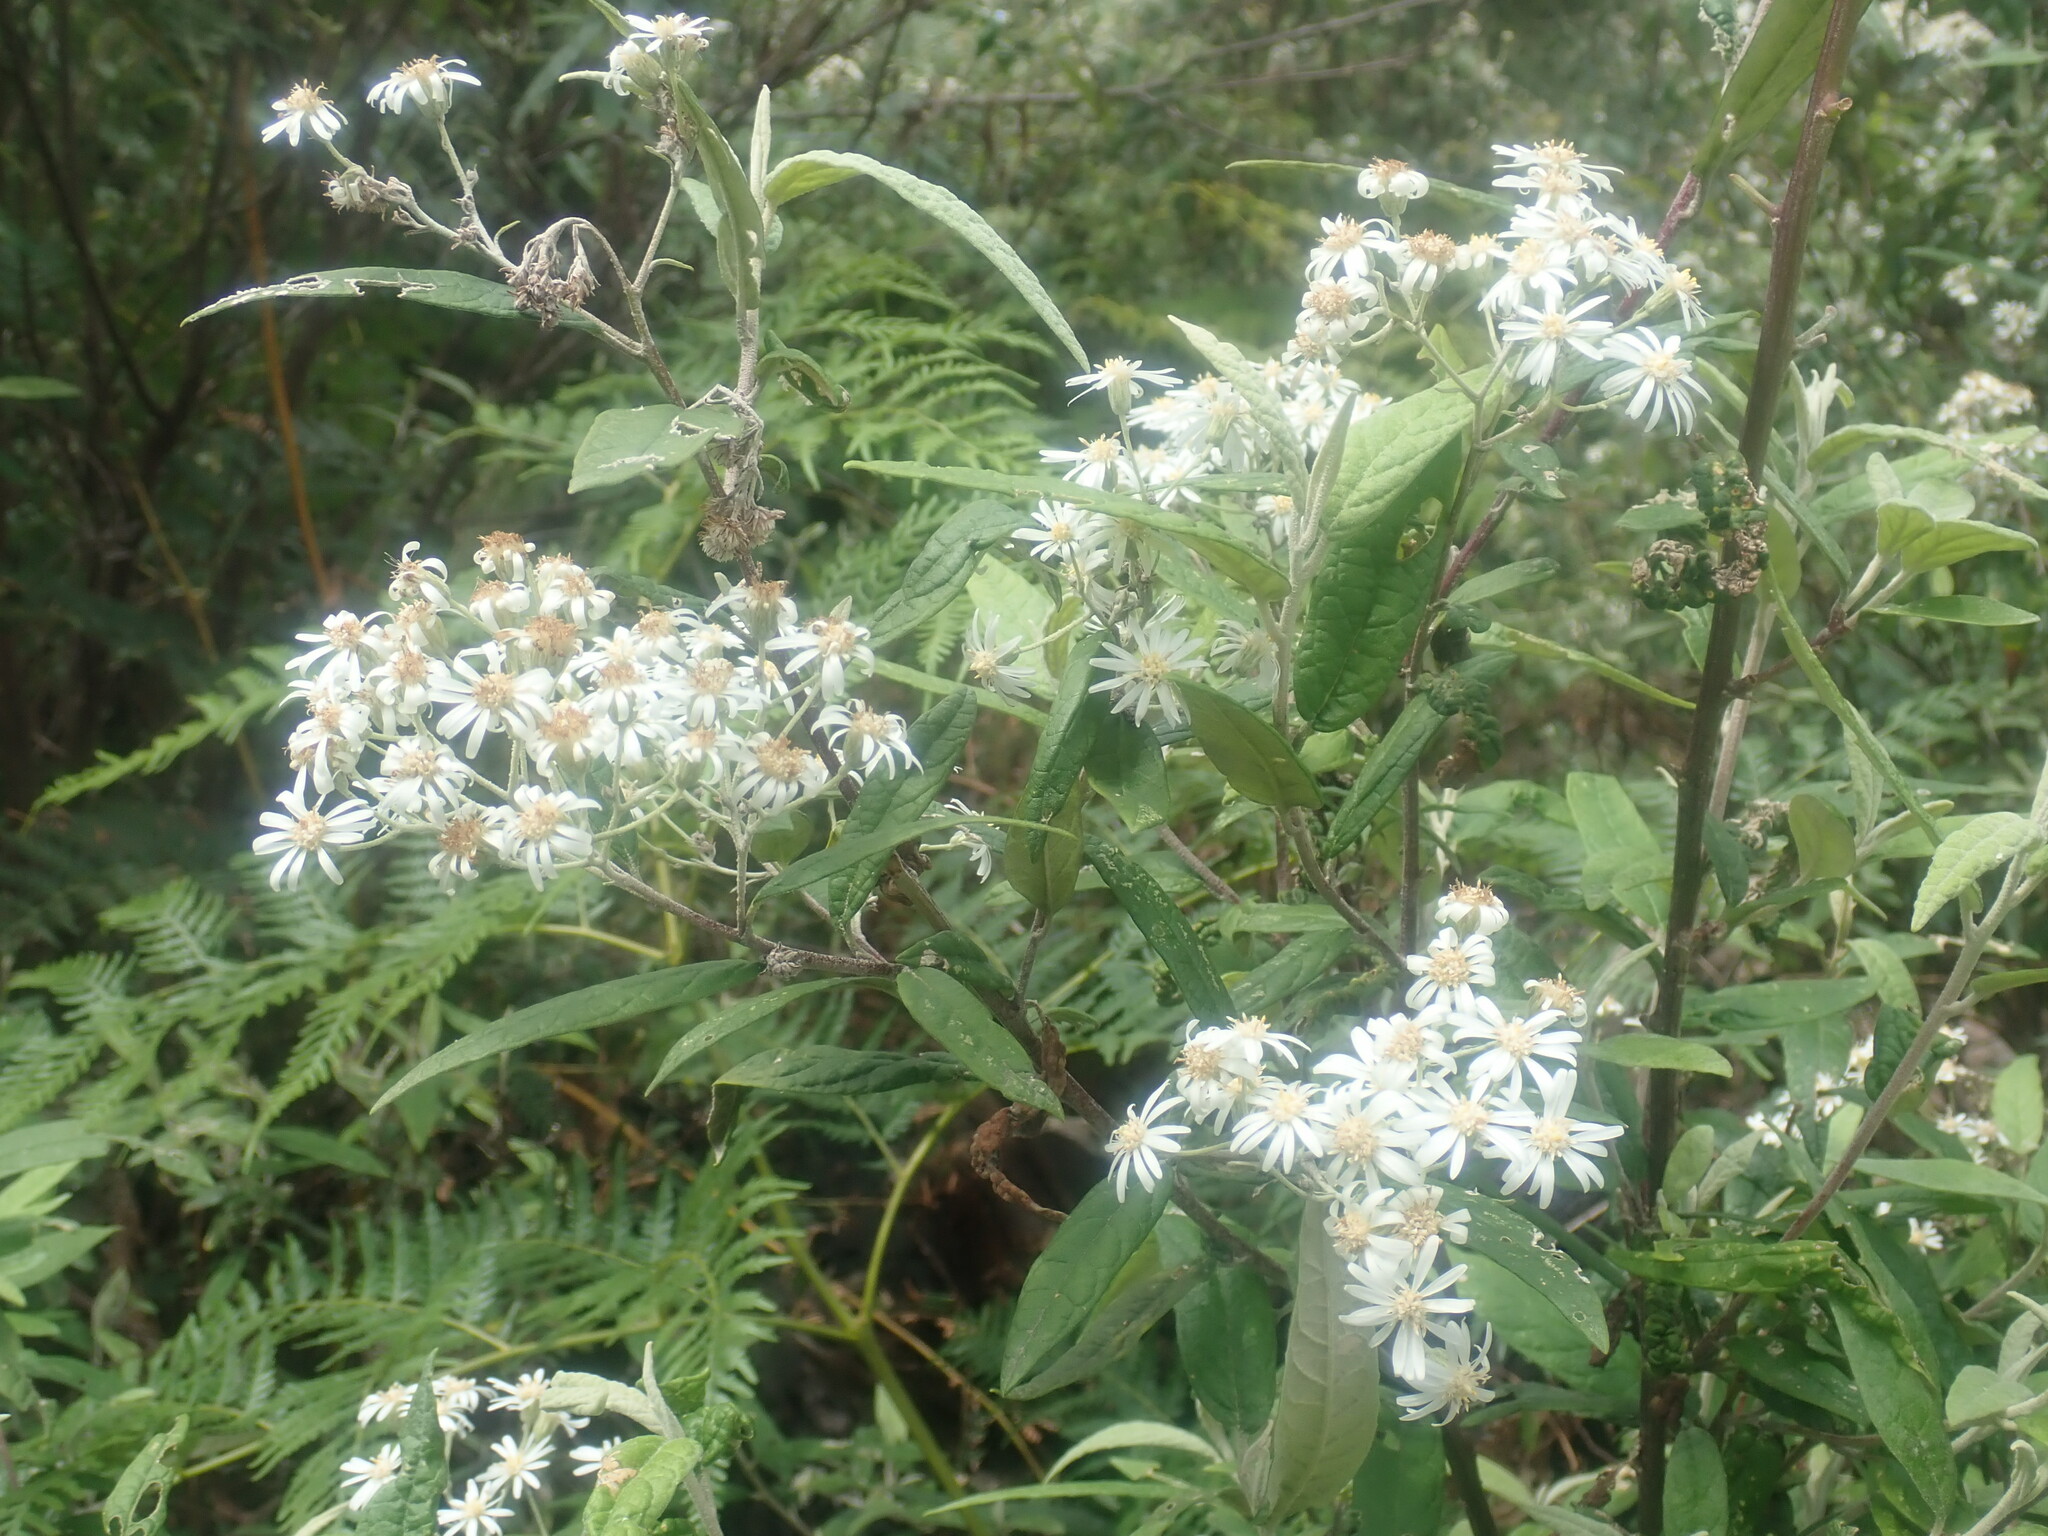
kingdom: Plantae
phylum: Tracheophyta
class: Magnoliopsida
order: Asterales
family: Asteraceae
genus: Olearia
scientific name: Olearia lirata
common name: Dusty daisybush
